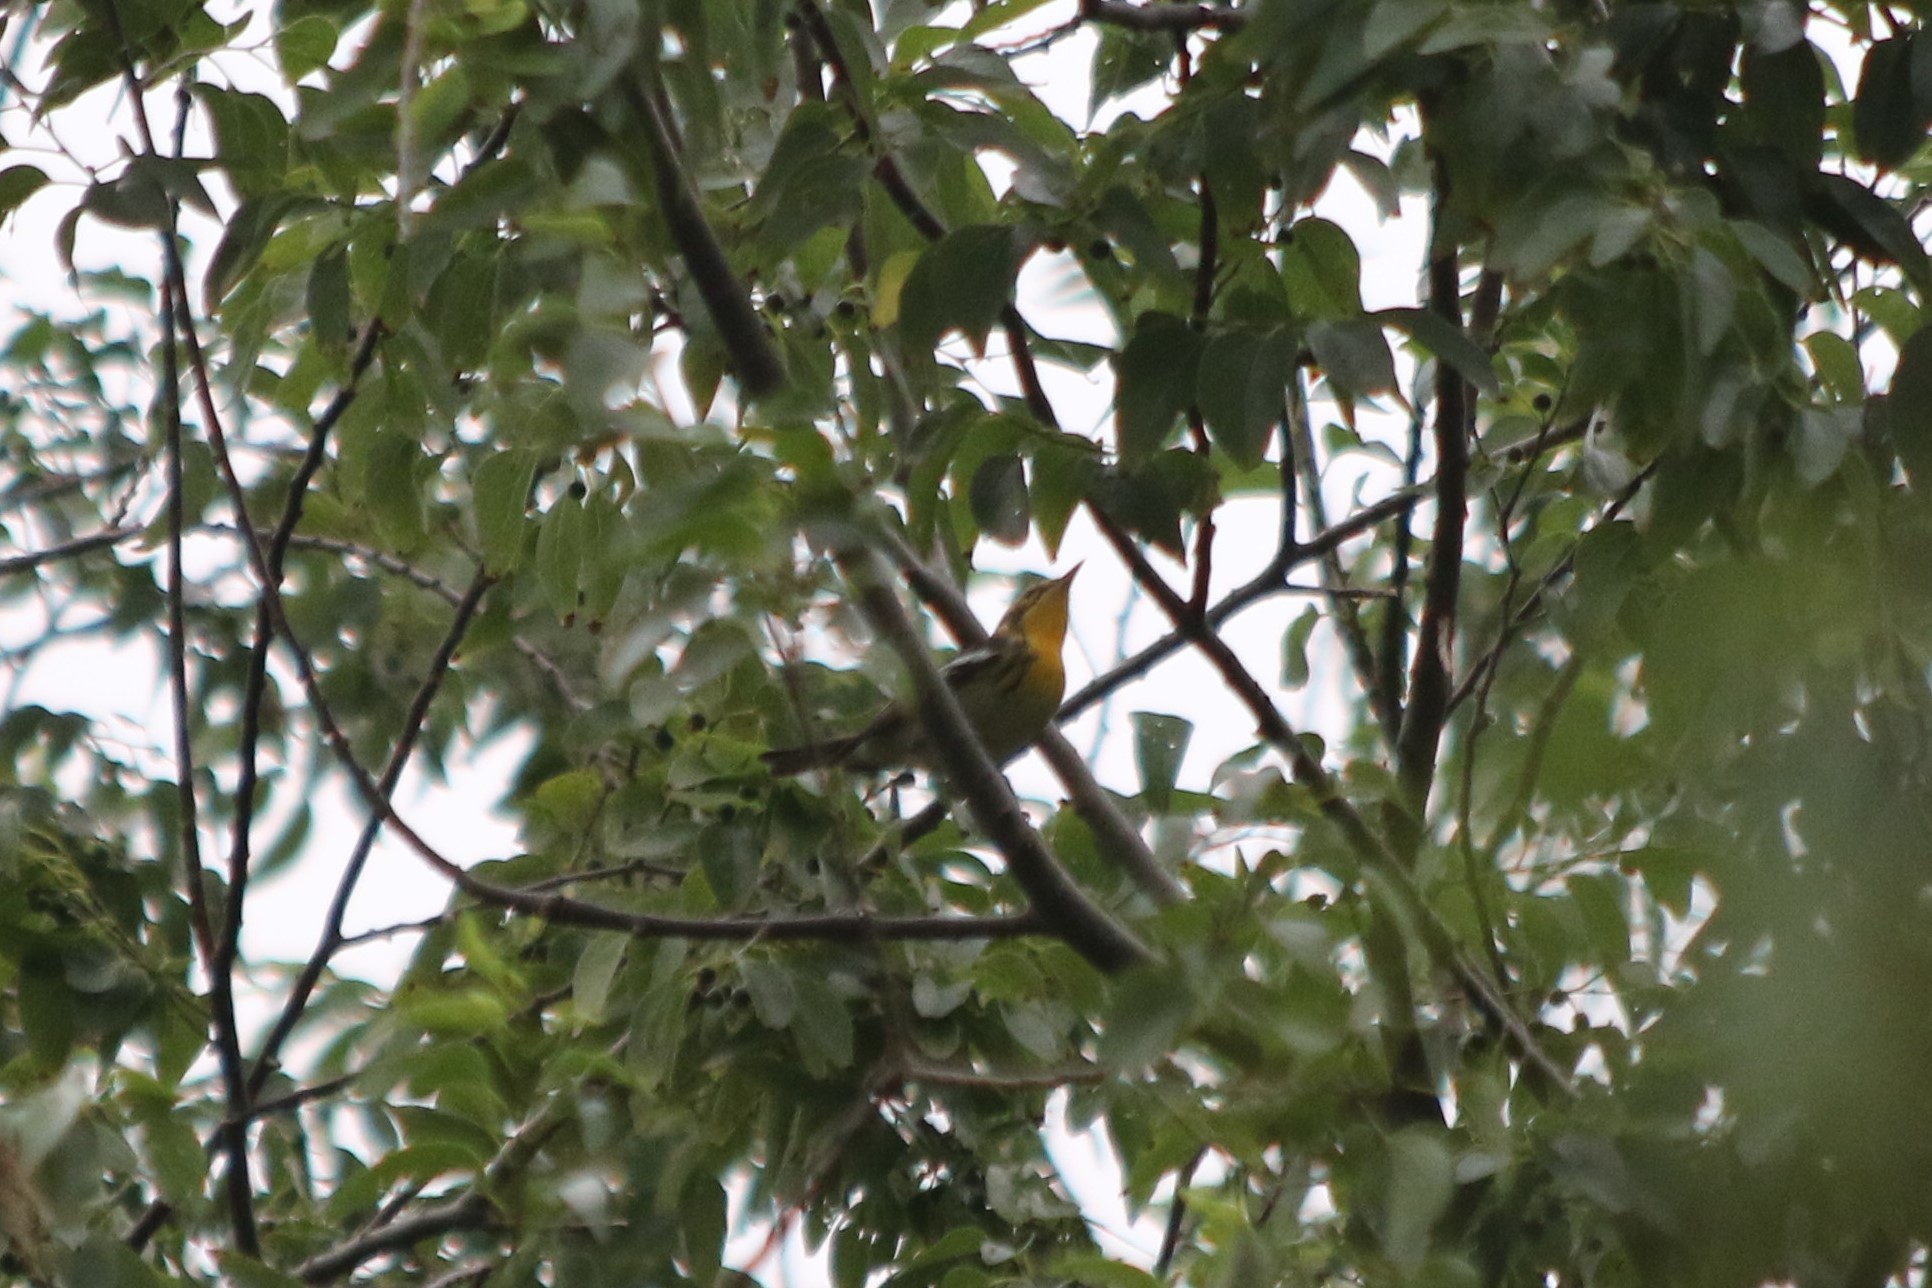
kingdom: Animalia
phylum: Chordata
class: Aves
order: Passeriformes
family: Parulidae
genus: Setophaga
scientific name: Setophaga fusca
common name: Blackburnian warbler
